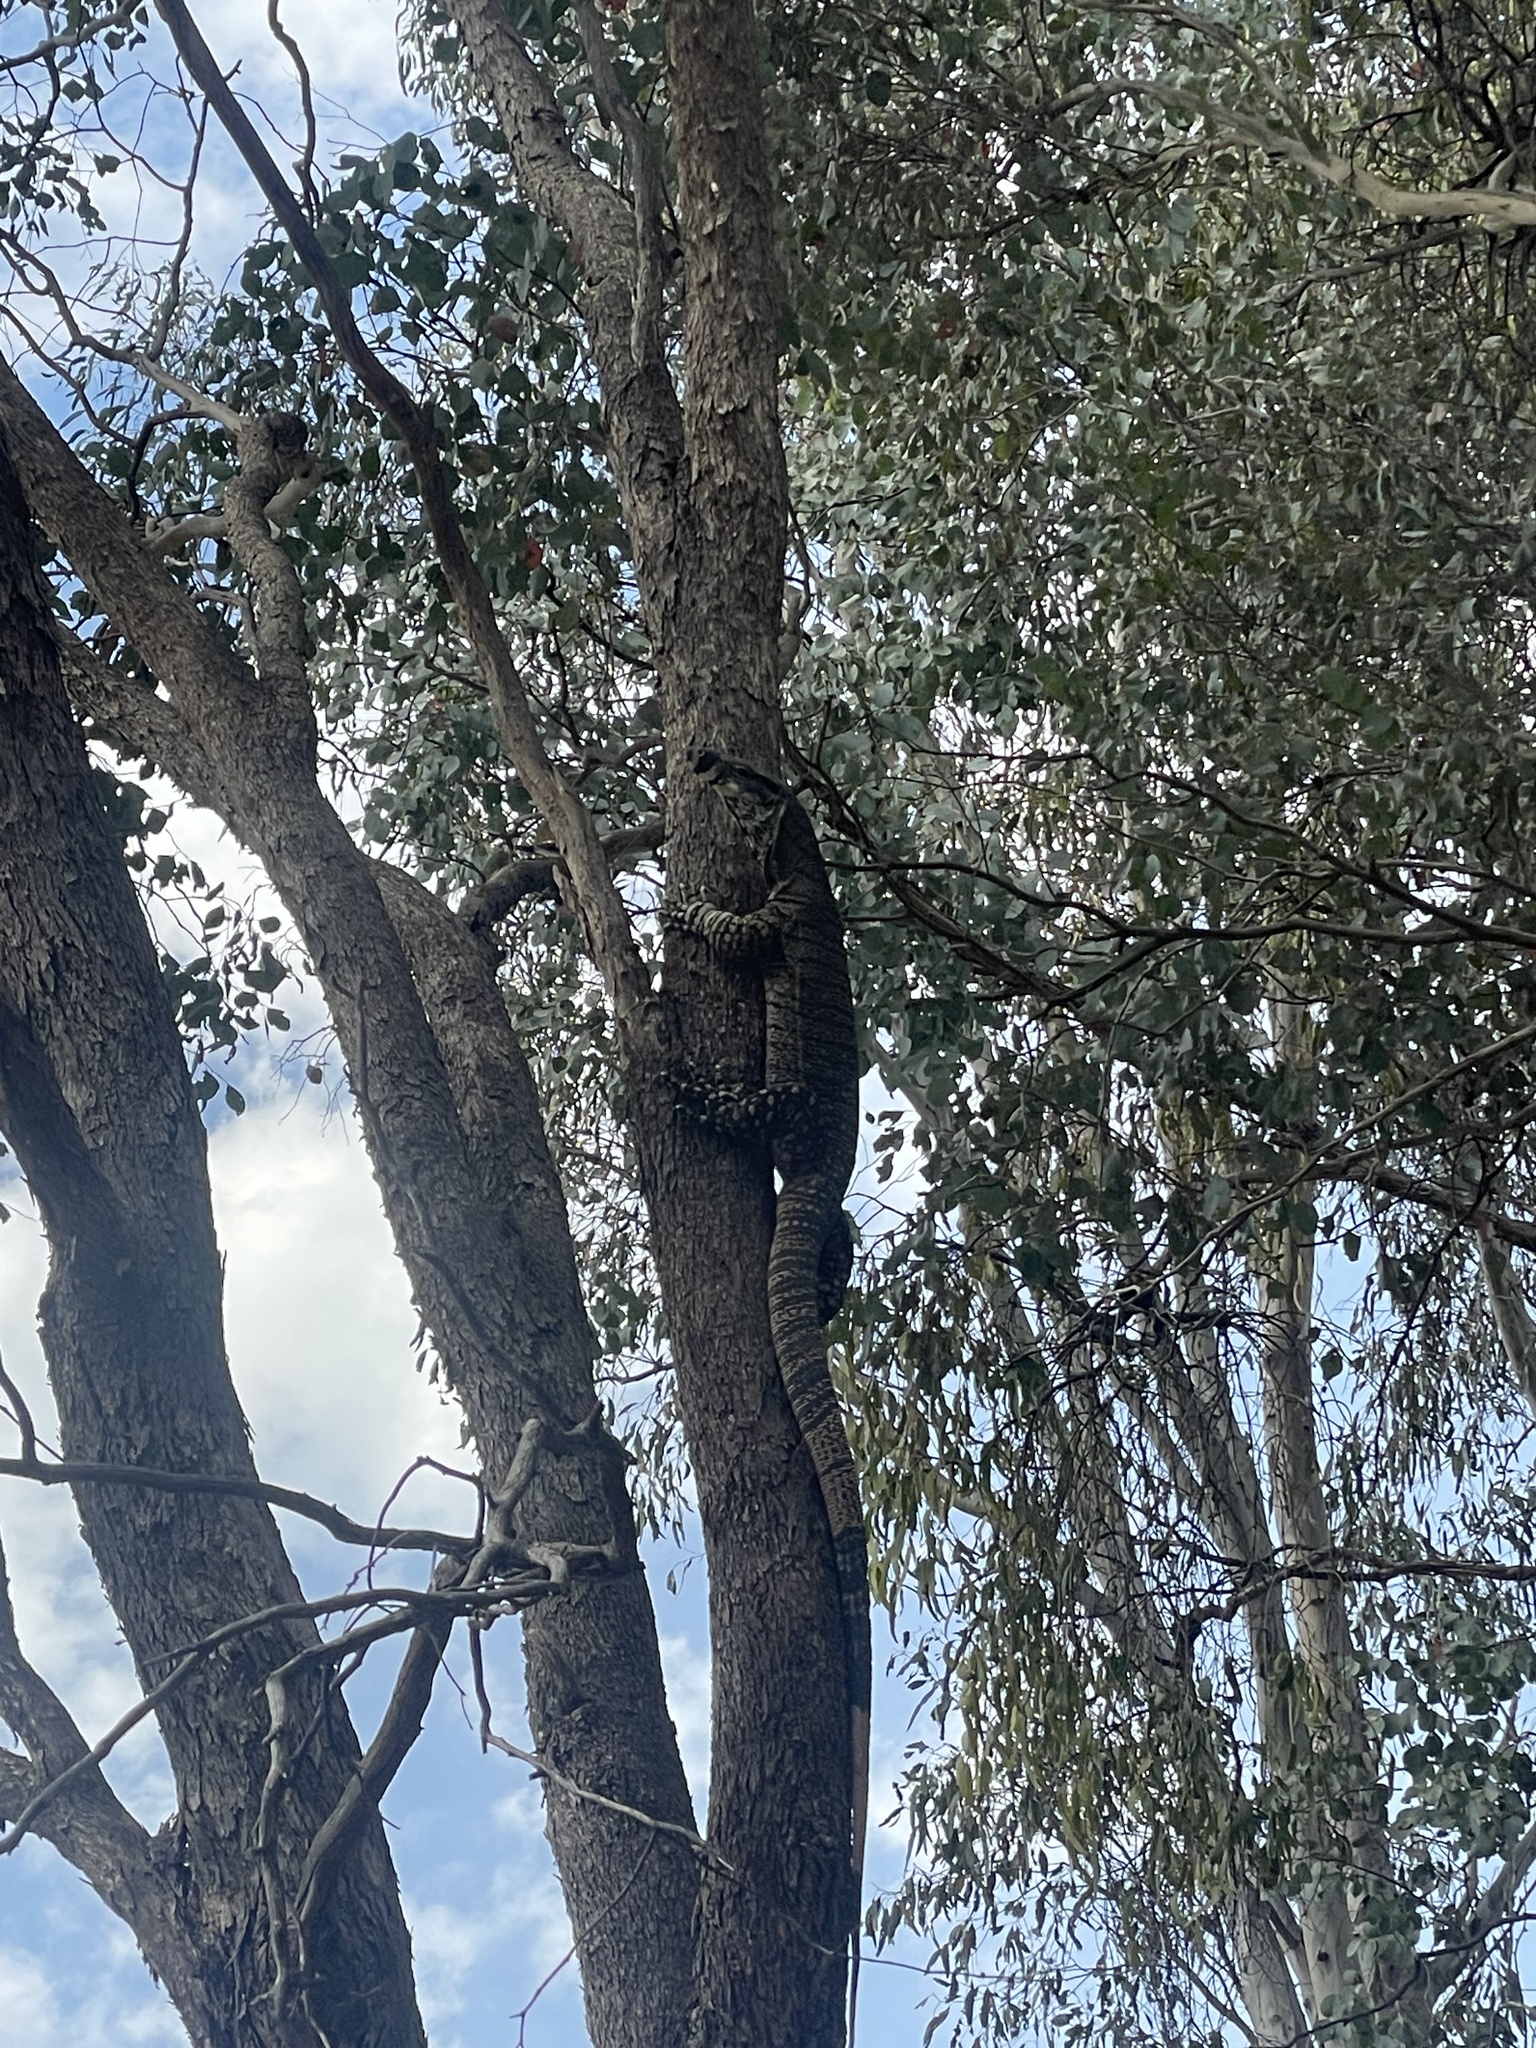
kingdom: Animalia
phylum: Chordata
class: Squamata
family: Varanidae
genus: Varanus
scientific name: Varanus varius
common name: Lace monitor
